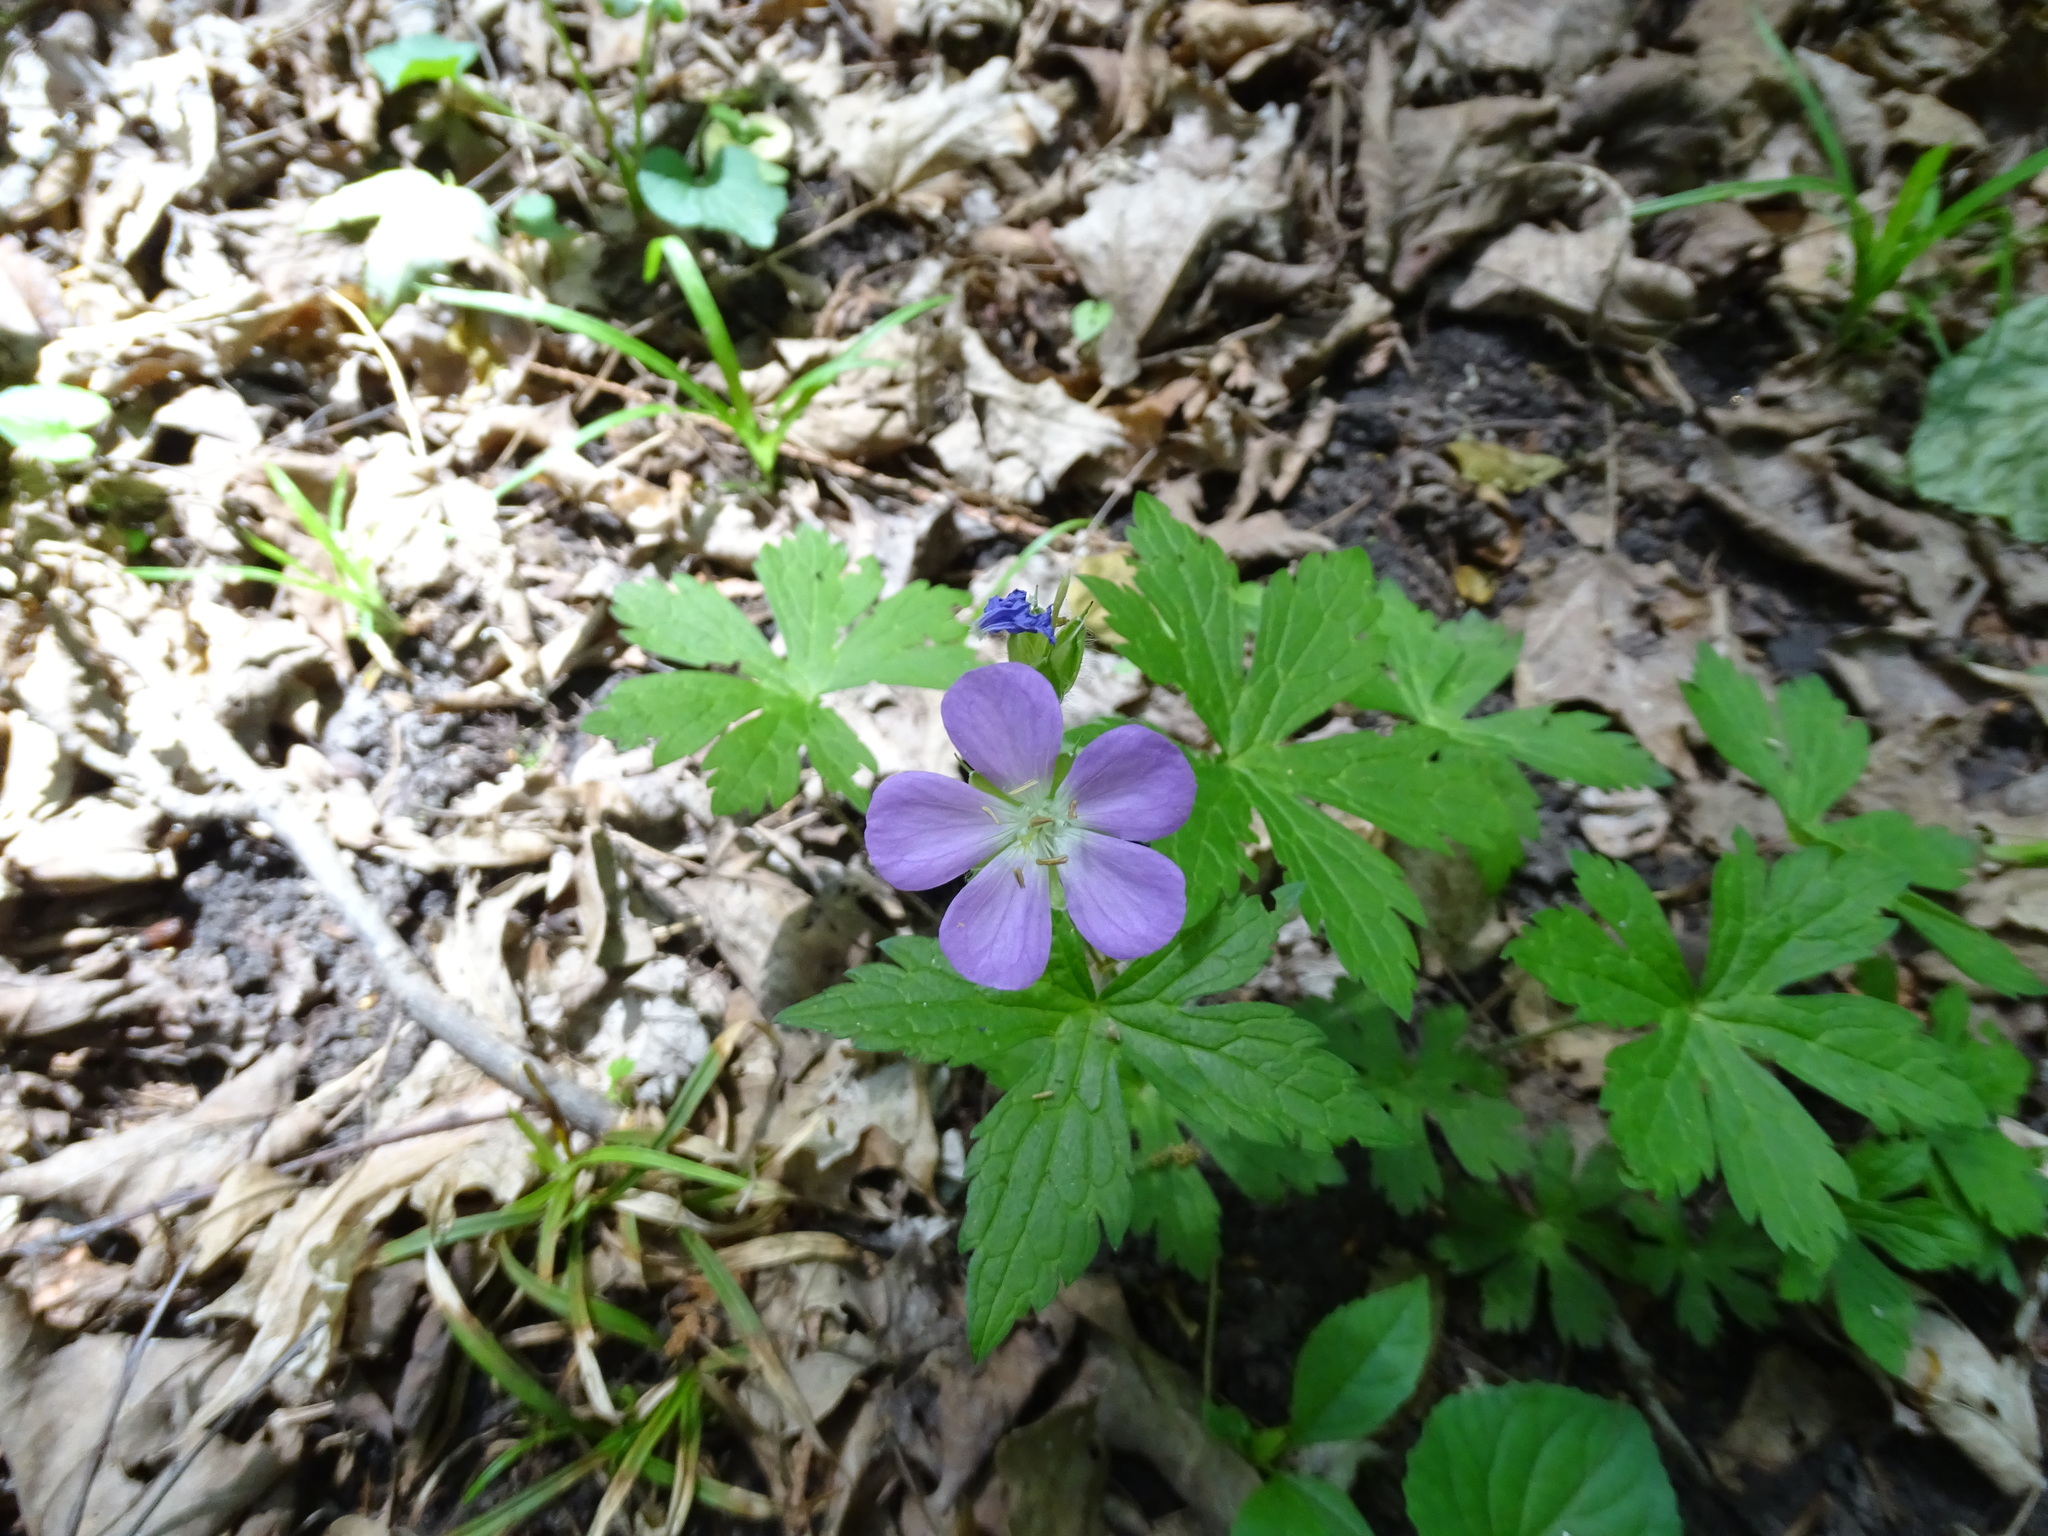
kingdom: Plantae
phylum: Tracheophyta
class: Magnoliopsida
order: Geraniales
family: Geraniaceae
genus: Geranium
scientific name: Geranium maculatum
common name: Spotted geranium
